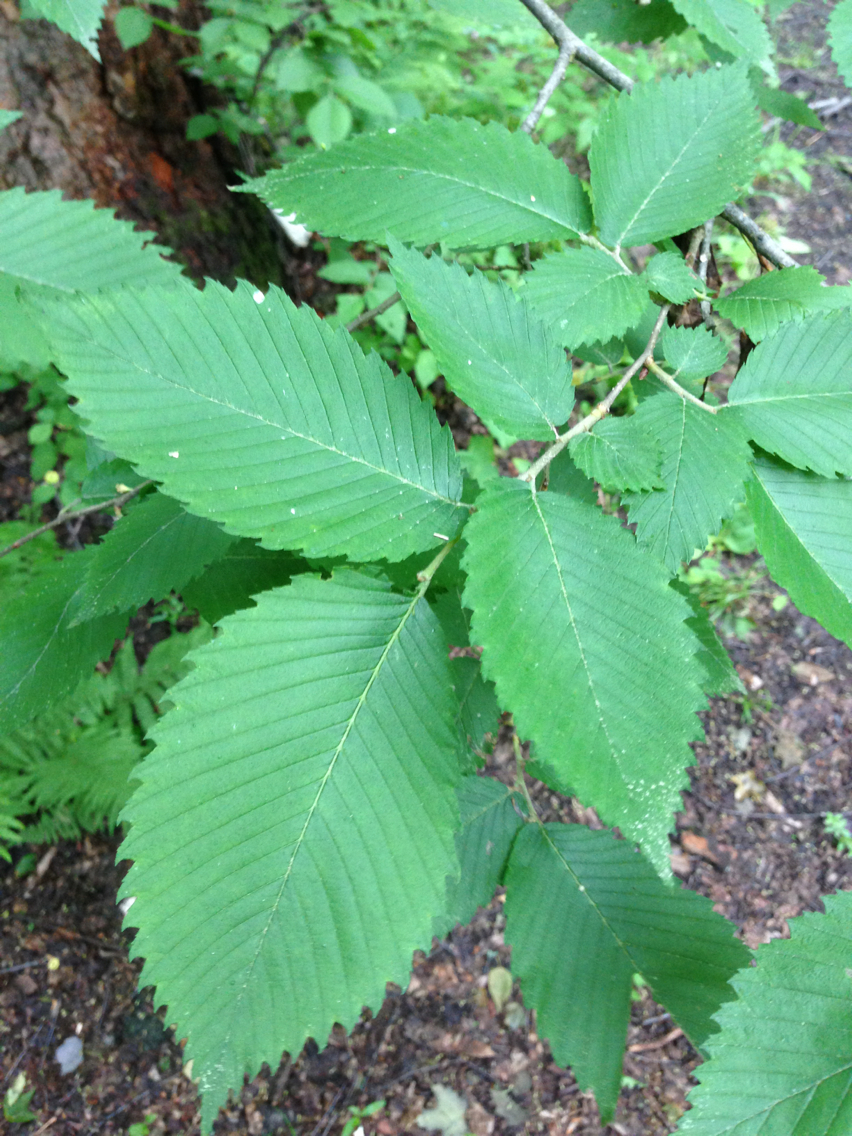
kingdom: Plantae
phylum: Tracheophyta
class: Magnoliopsida
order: Rosales
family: Ulmaceae
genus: Ulmus
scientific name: Ulmus americana
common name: American elm
